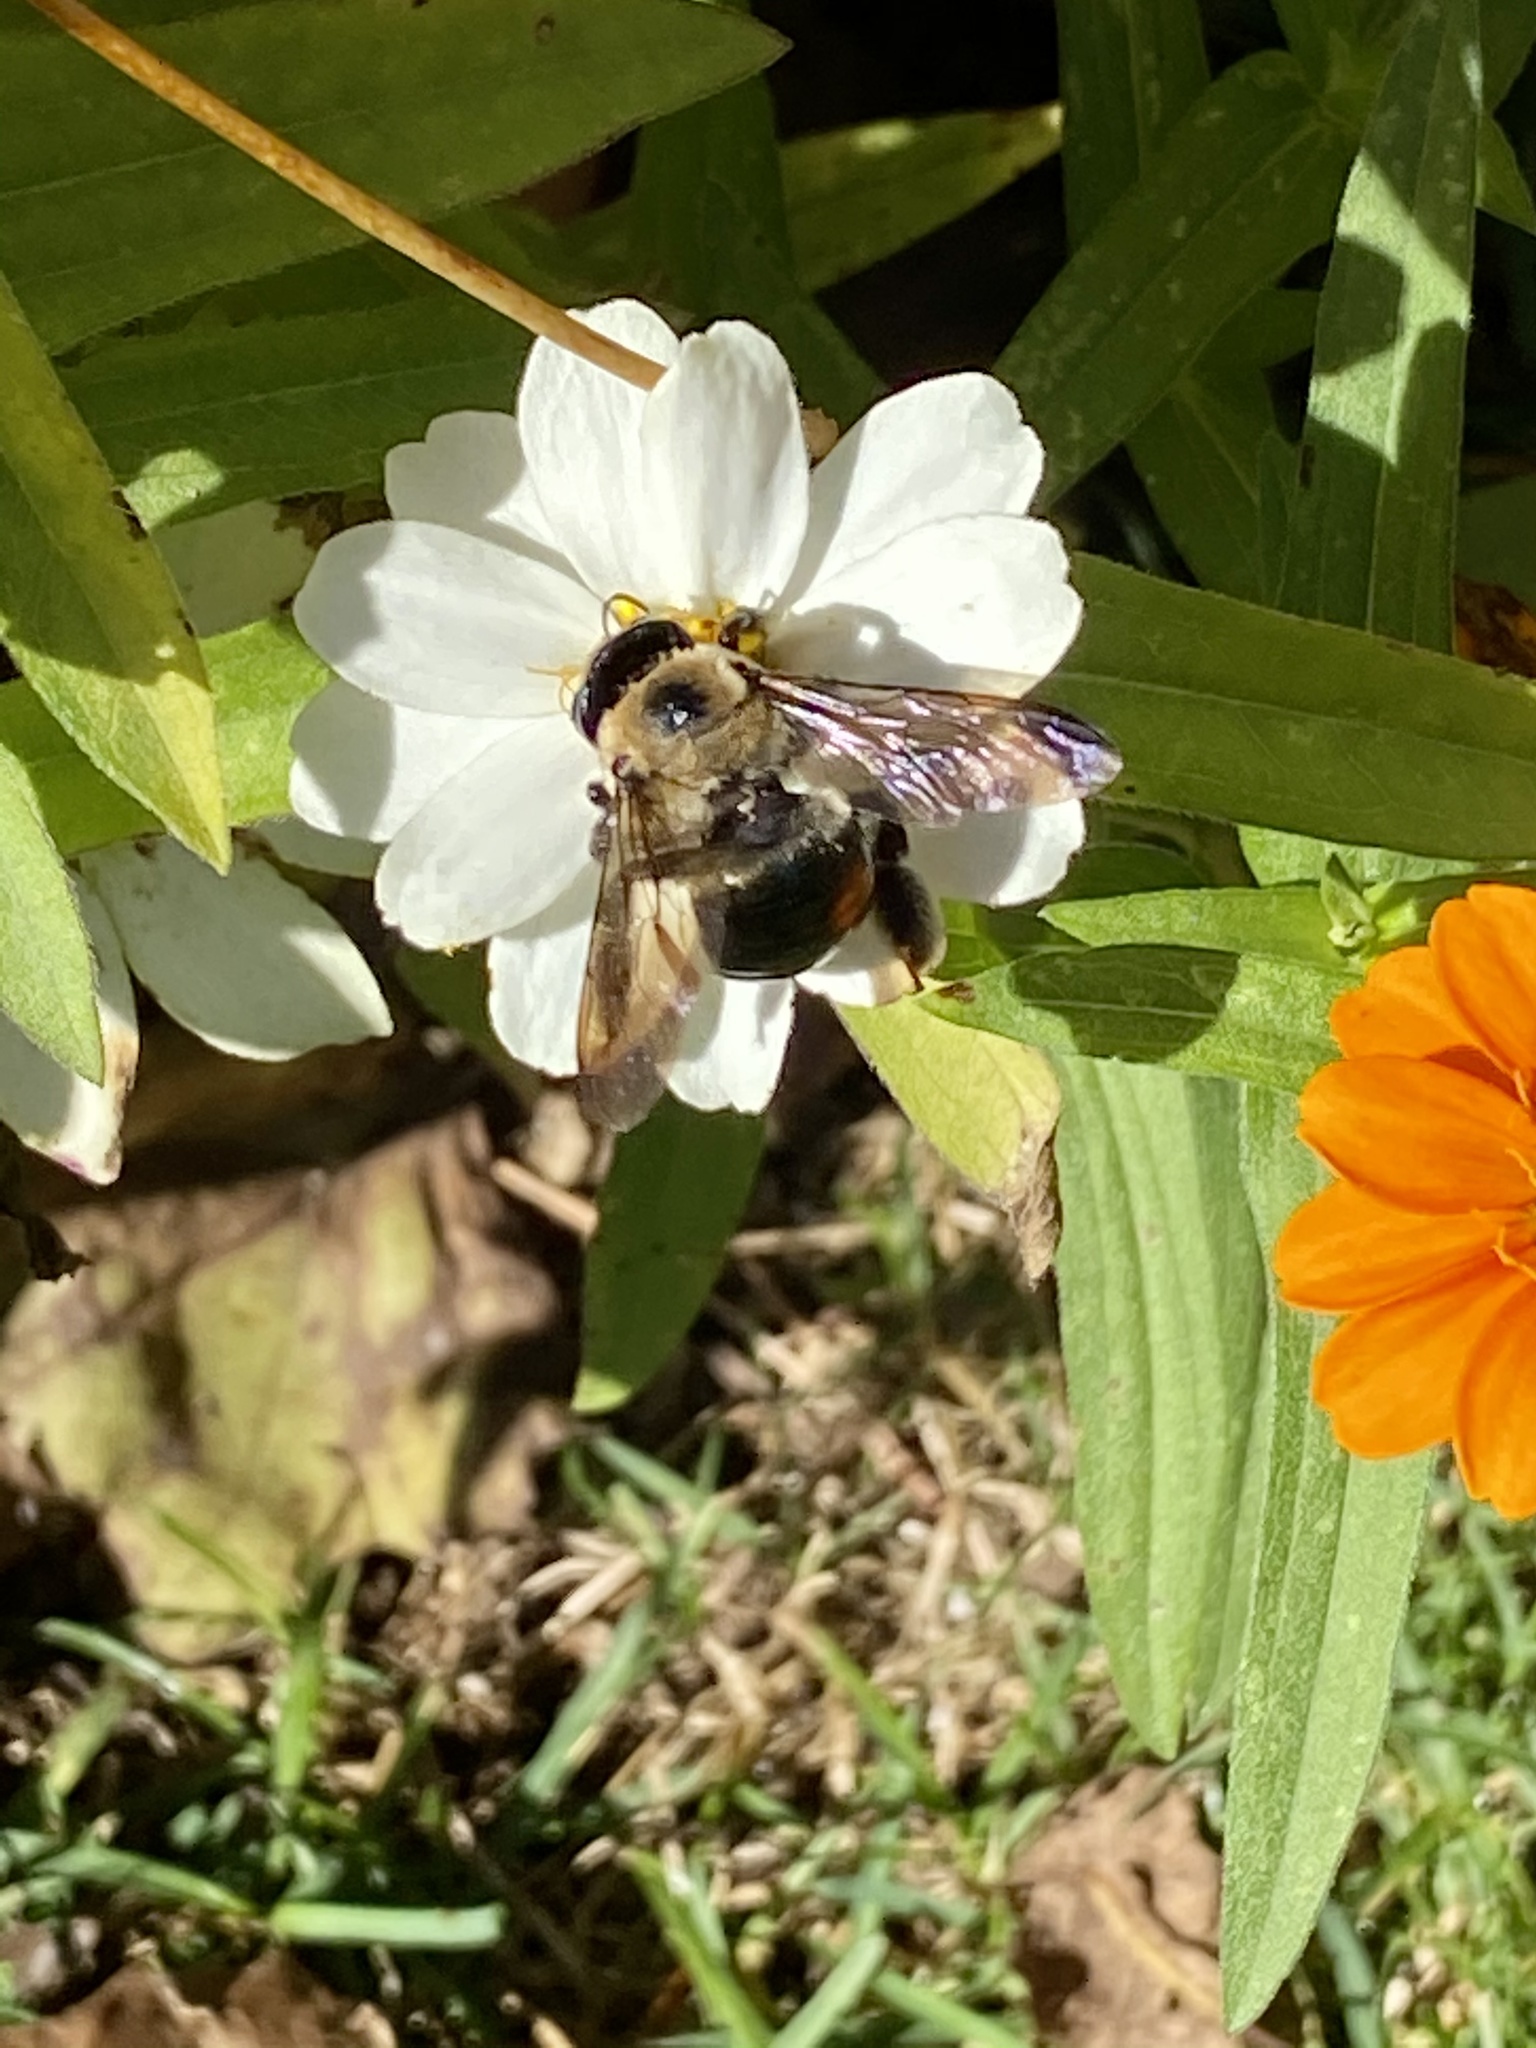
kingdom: Animalia
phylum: Arthropoda
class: Insecta
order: Hymenoptera
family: Apidae
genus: Xylocopa
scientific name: Xylocopa virginica
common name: Carpenter bee
